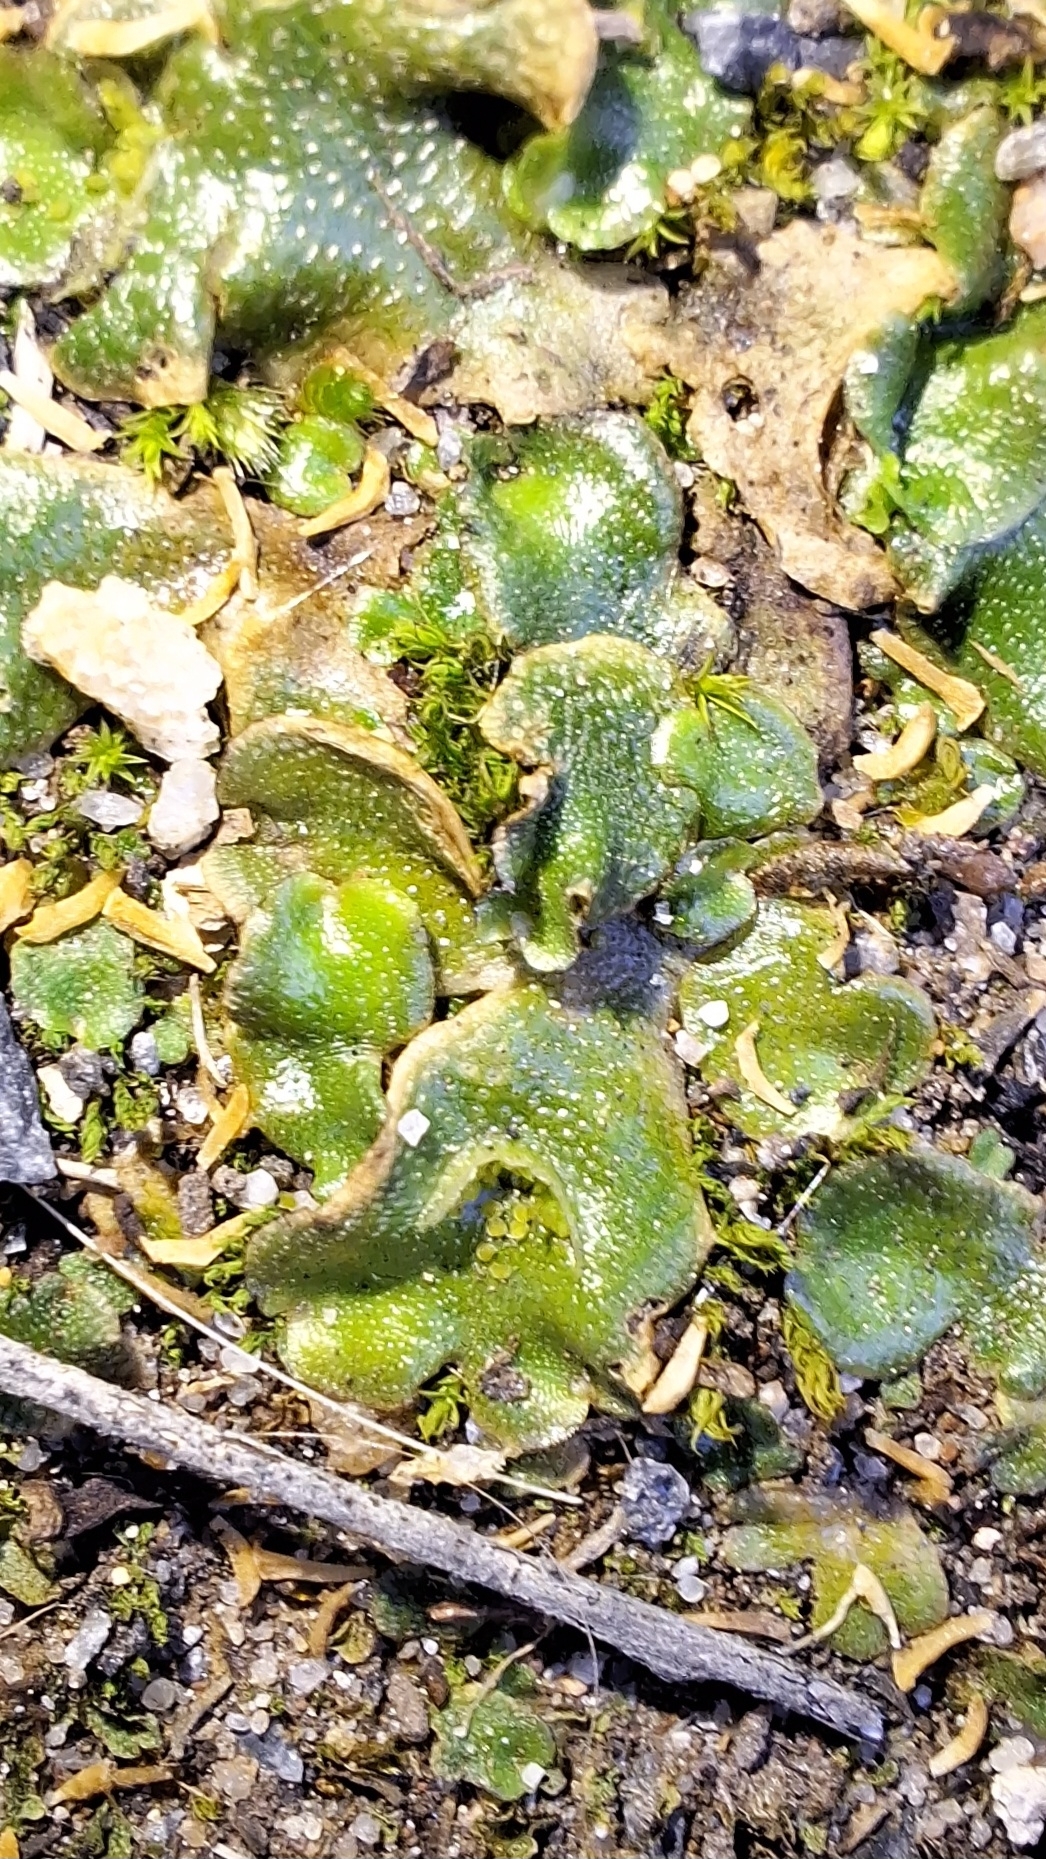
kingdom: Plantae
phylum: Marchantiophyta
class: Marchantiopsida
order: Lunulariales
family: Lunulariaceae
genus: Lunularia
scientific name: Lunularia cruciata
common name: Crescent-cup liverwort
